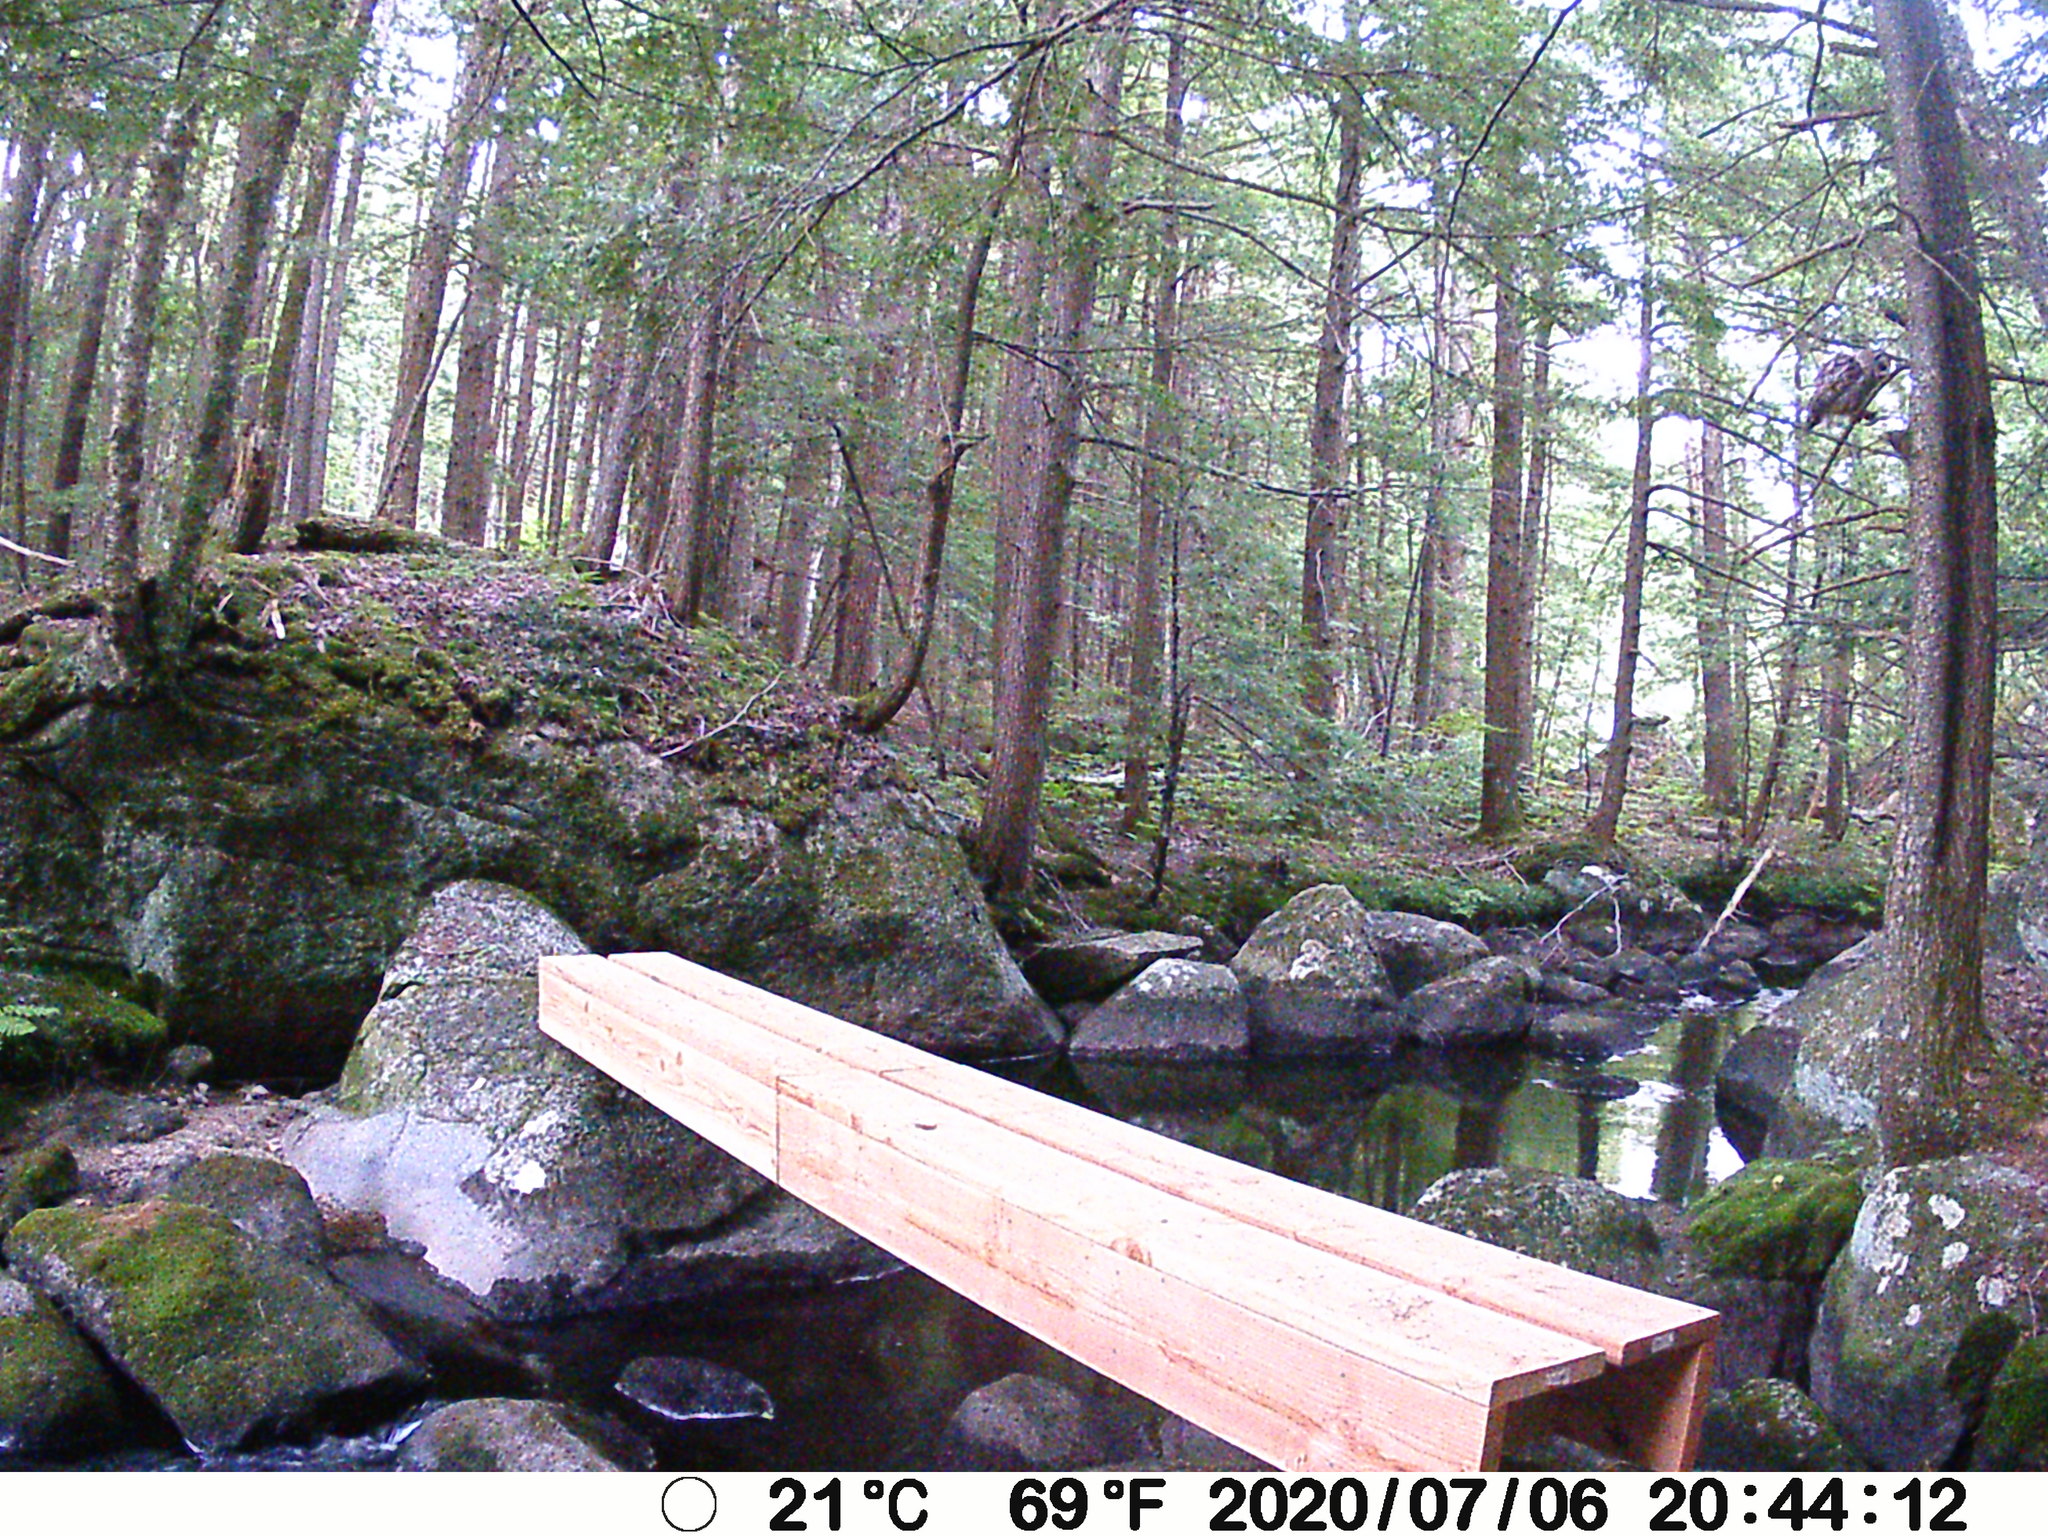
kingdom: Animalia
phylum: Chordata
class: Aves
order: Strigiformes
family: Strigidae
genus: Strix
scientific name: Strix varia
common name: Barred owl
